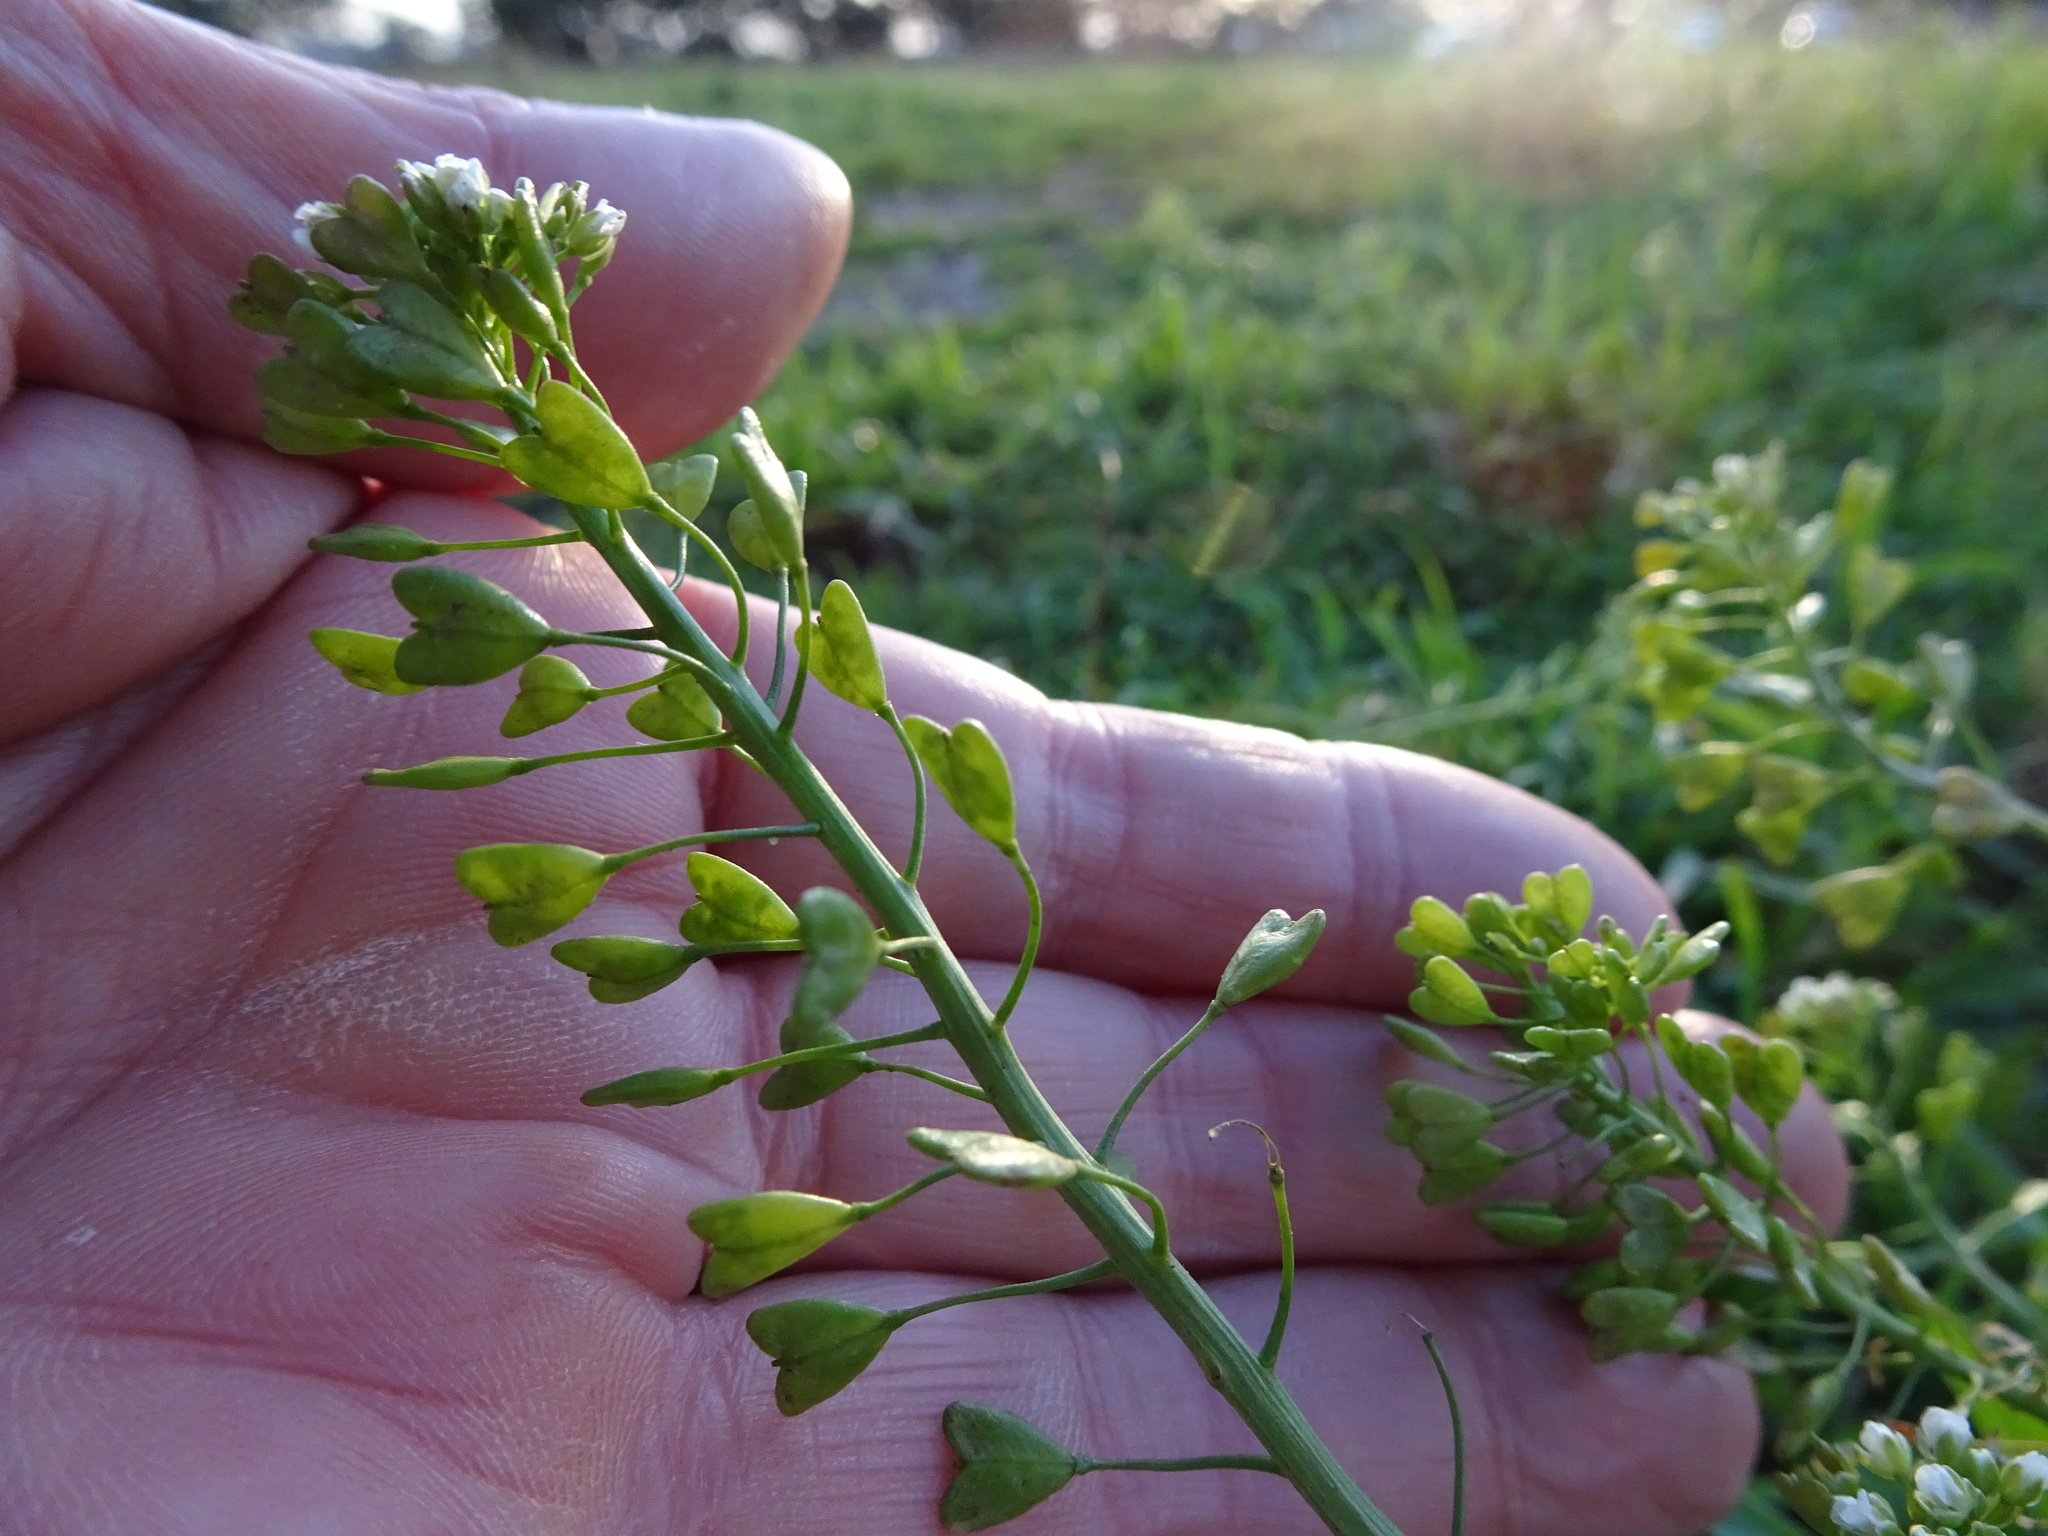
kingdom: Plantae
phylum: Tracheophyta
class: Magnoliopsida
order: Brassicales
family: Brassicaceae
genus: Capsella
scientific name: Capsella bursa-pastoris
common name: Shepherd's purse
